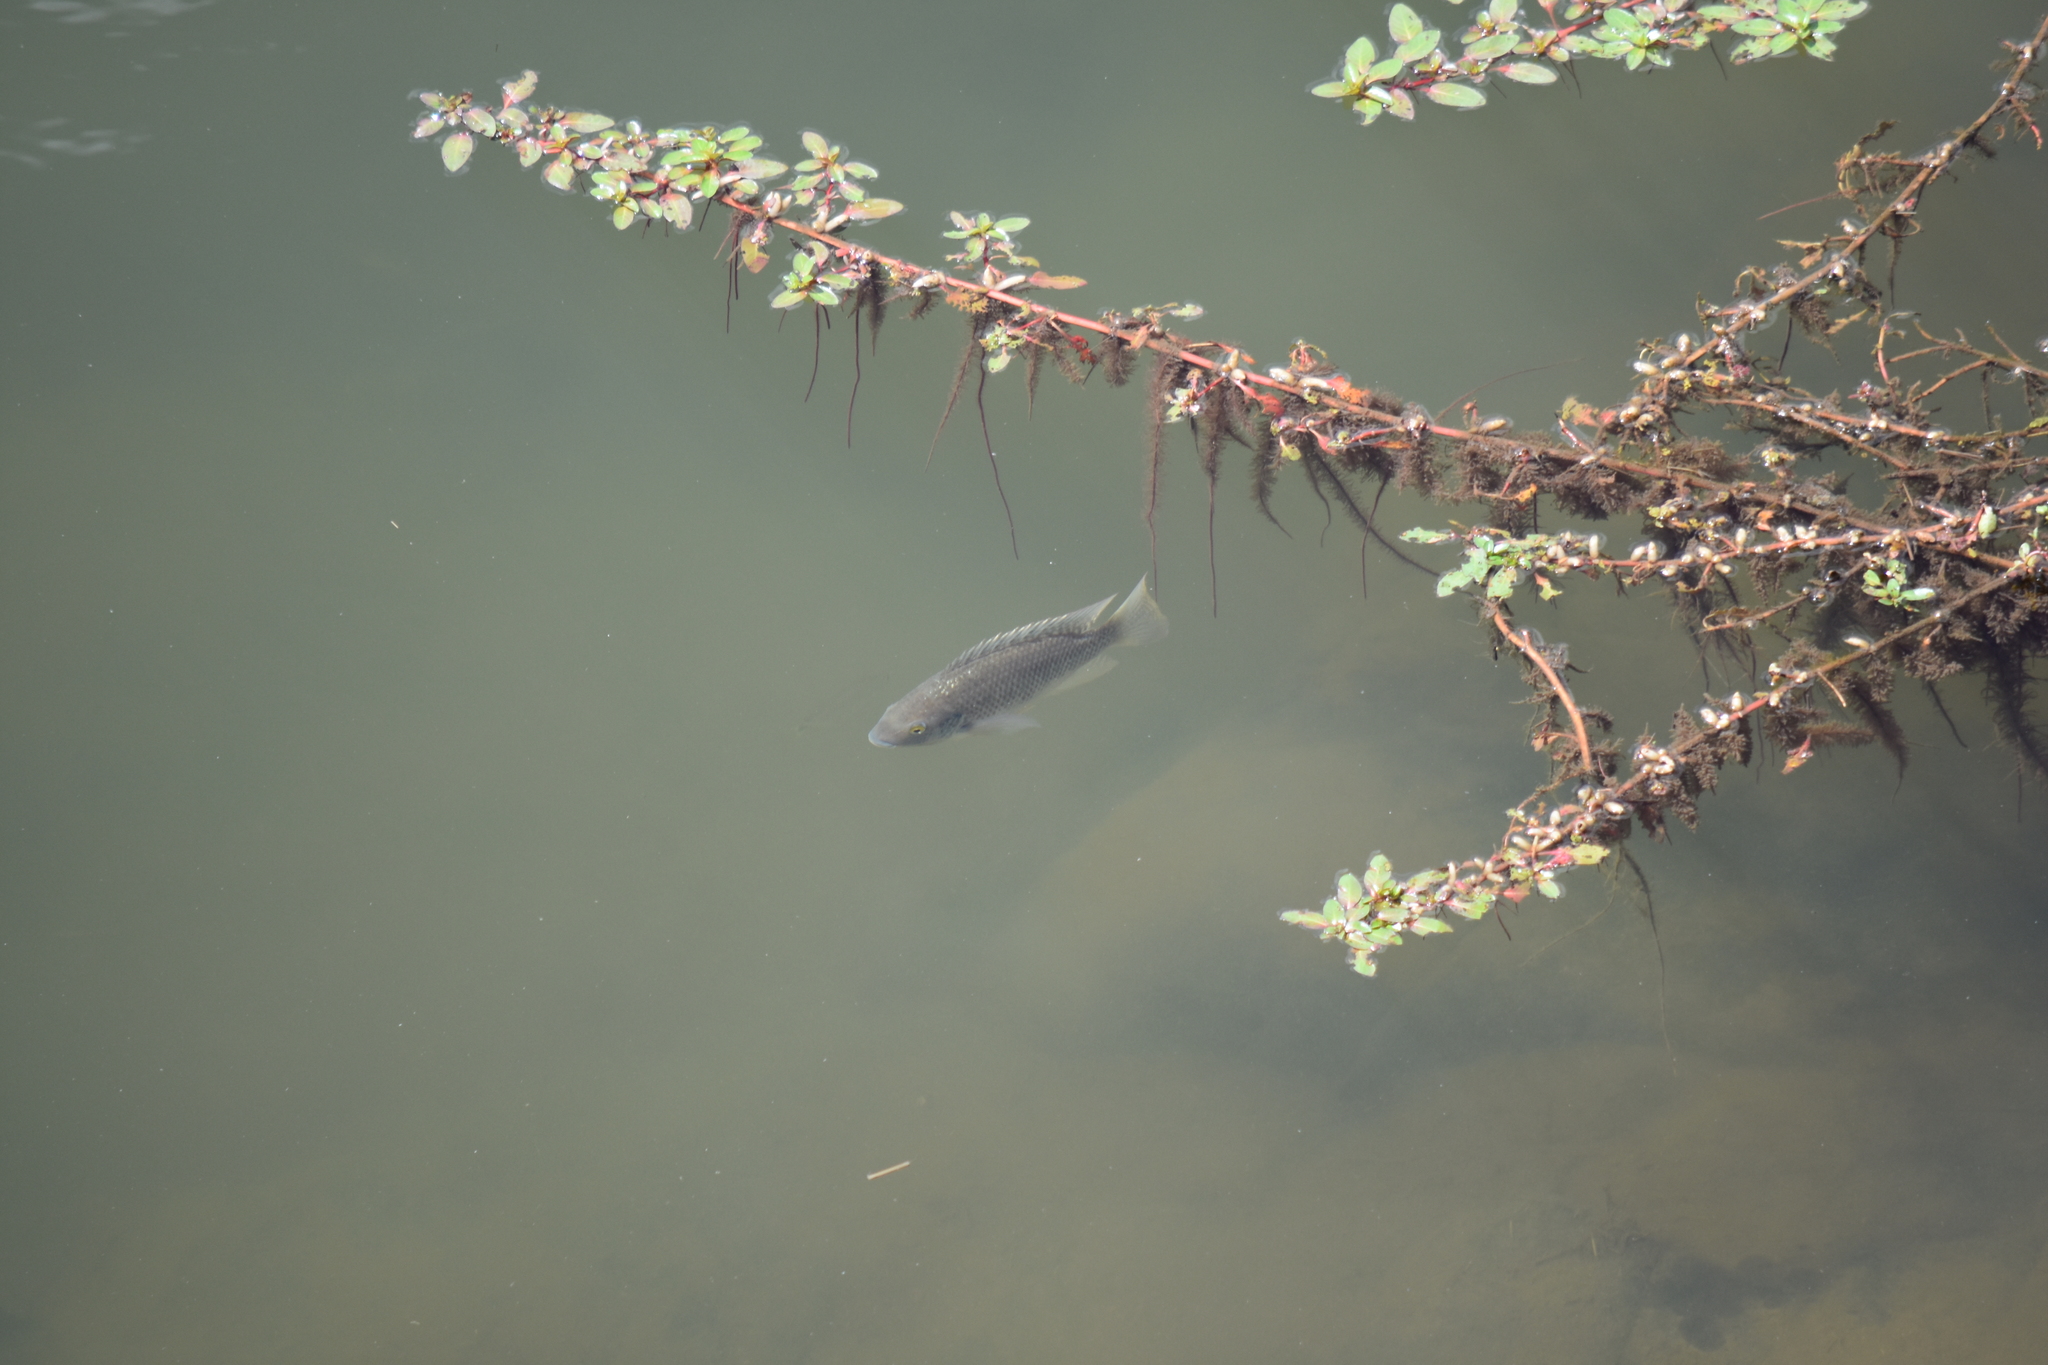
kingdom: Animalia
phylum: Chordata
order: Perciformes
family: Cichlidae
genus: Oreochromis
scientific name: Oreochromis mossambicus
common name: Mozambique tilapia
